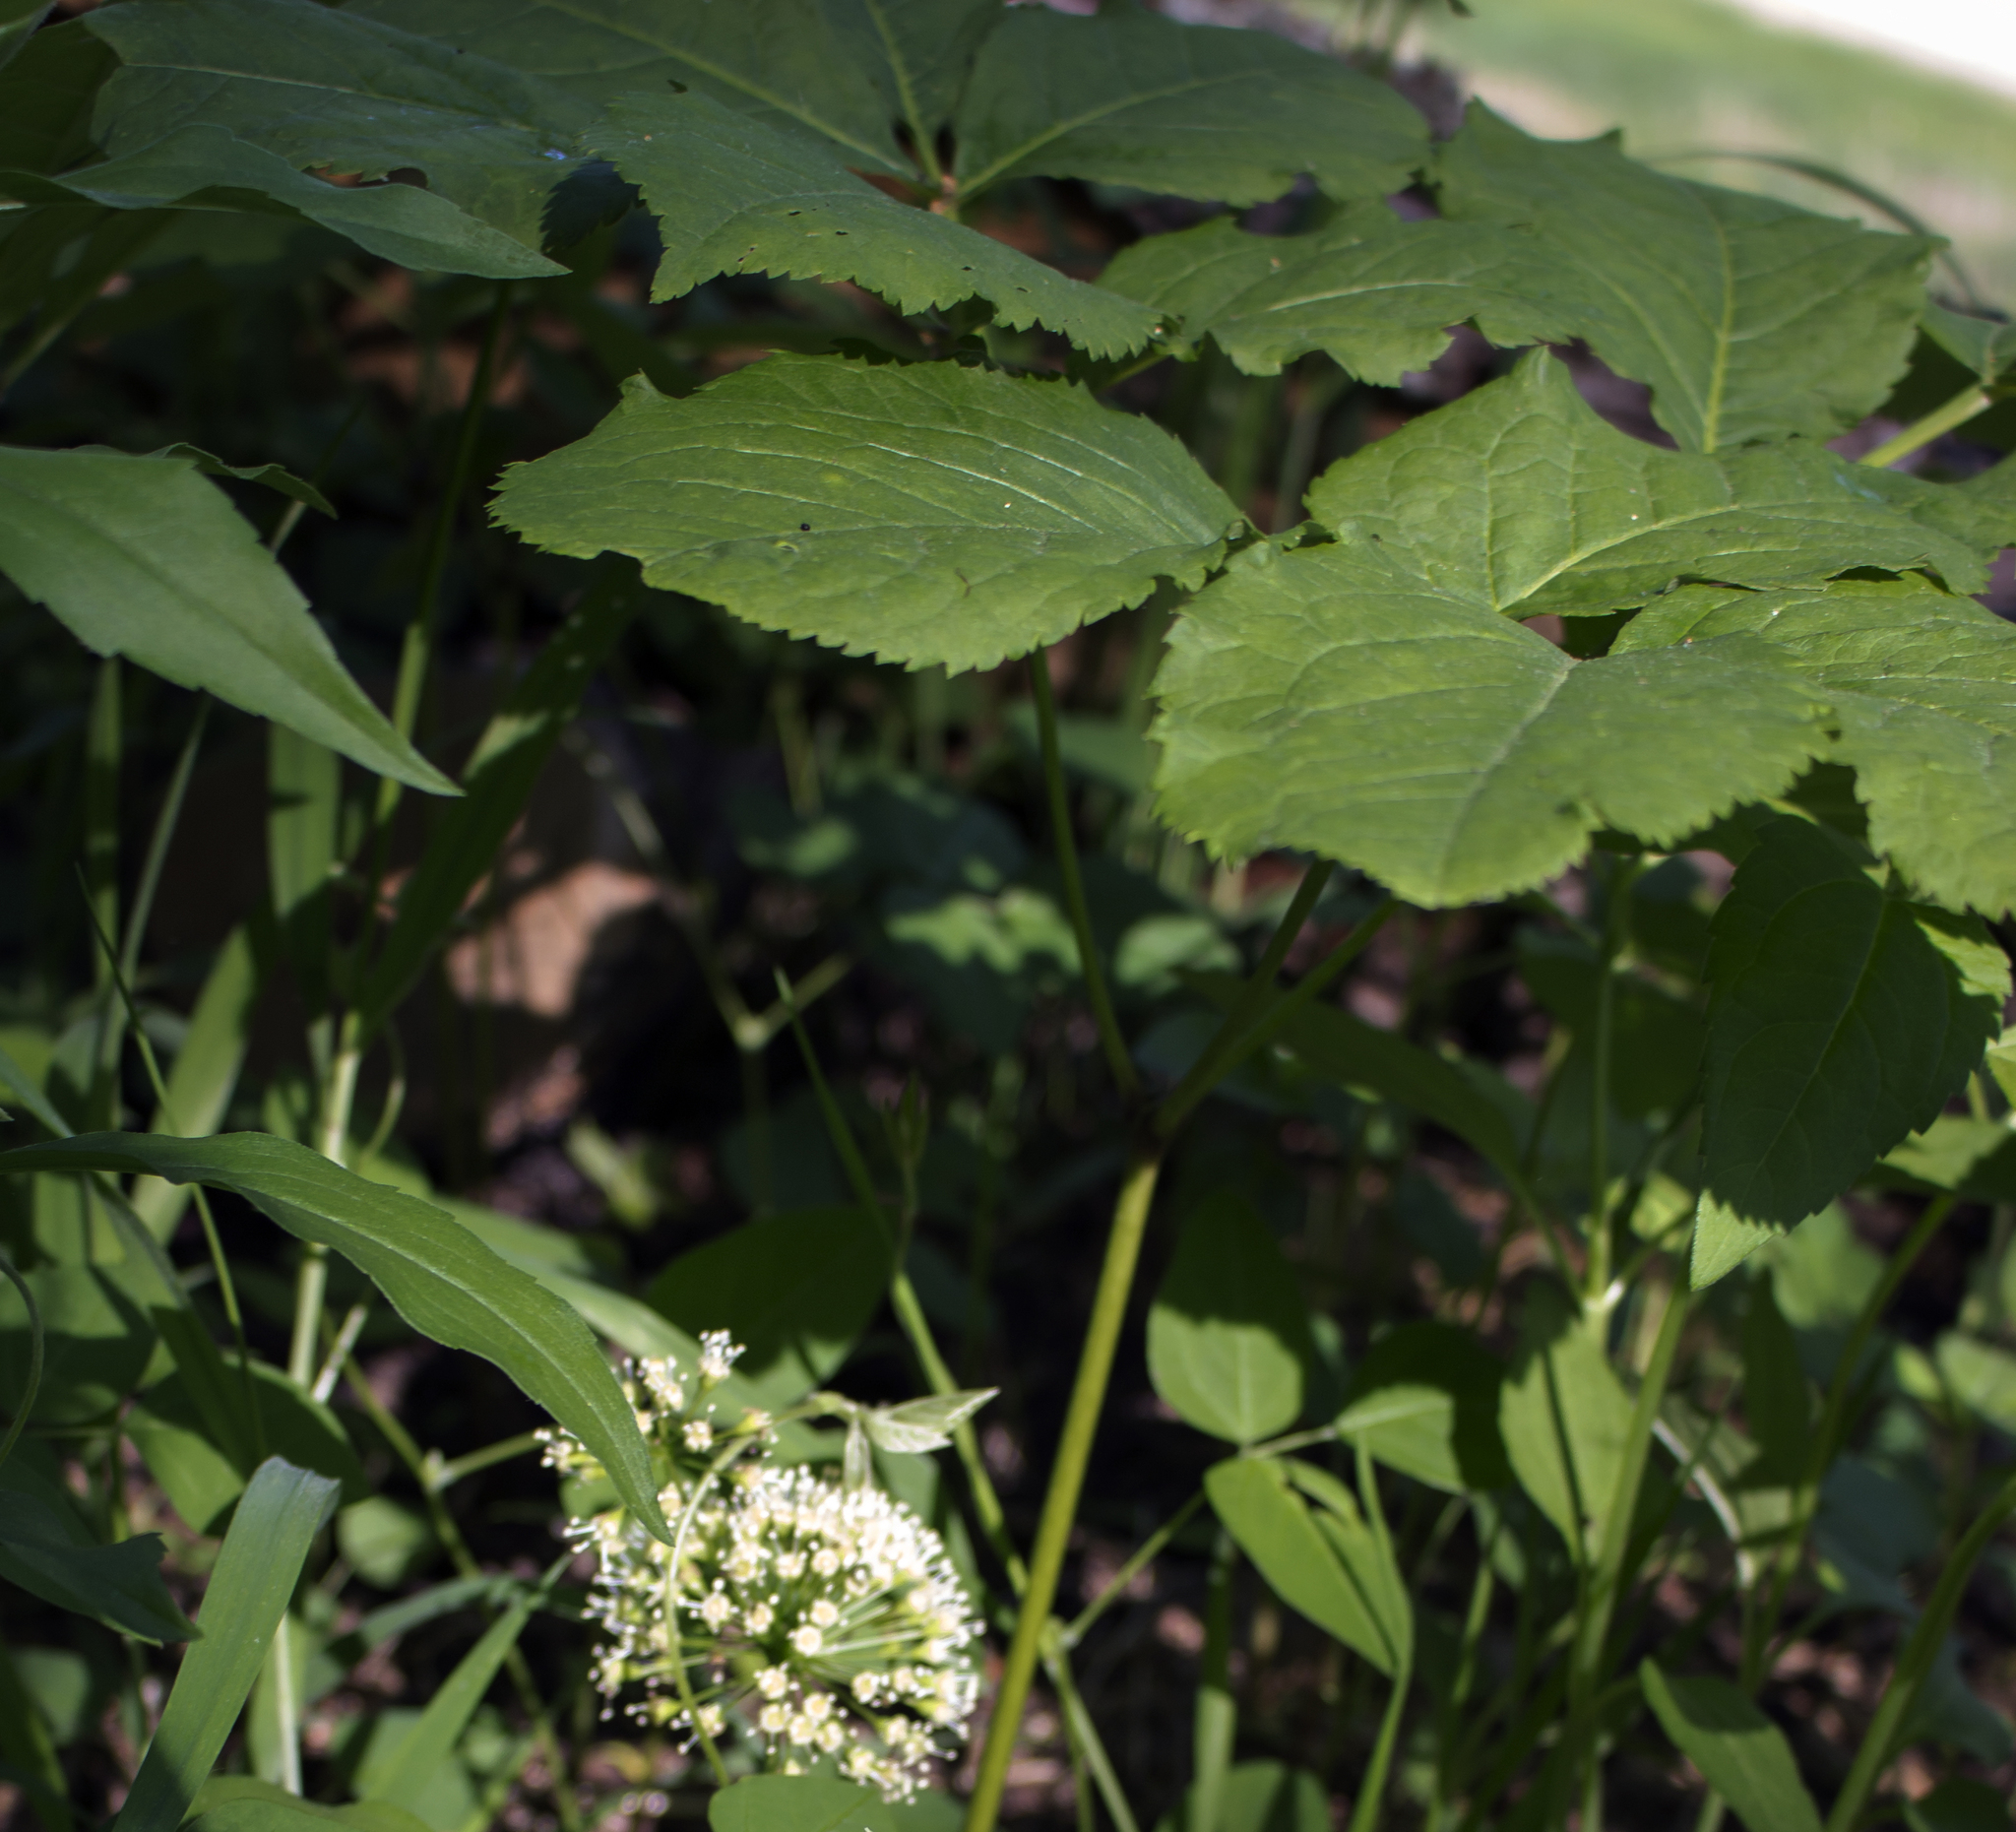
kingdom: Plantae
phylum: Tracheophyta
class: Magnoliopsida
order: Apiales
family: Araliaceae
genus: Aralia
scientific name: Aralia nudicaulis
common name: Wild sarsaparilla
